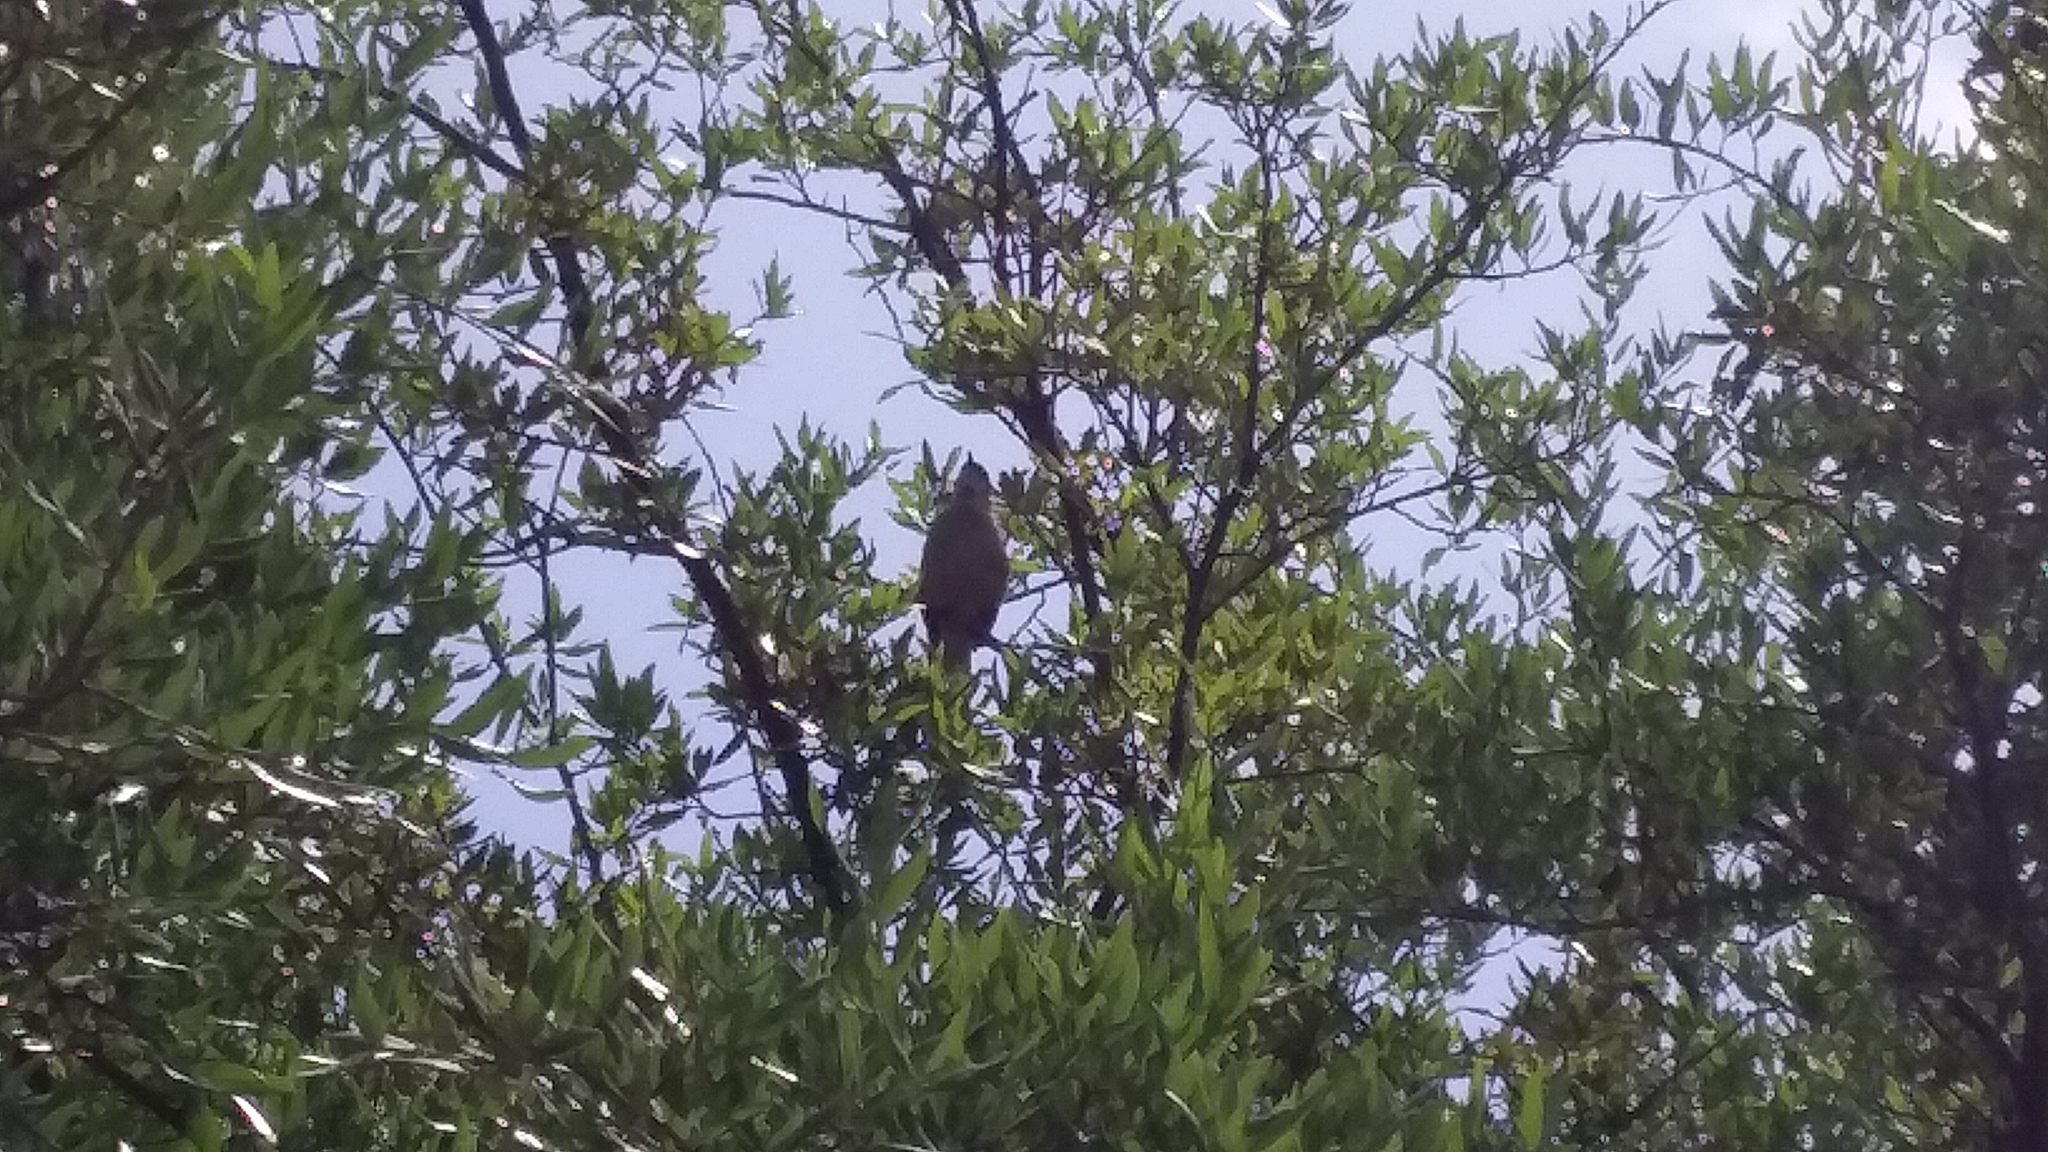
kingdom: Animalia
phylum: Chordata
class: Aves
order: Passeriformes
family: Mimidae
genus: Mimus
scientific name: Mimus polyglottos
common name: Northern mockingbird
